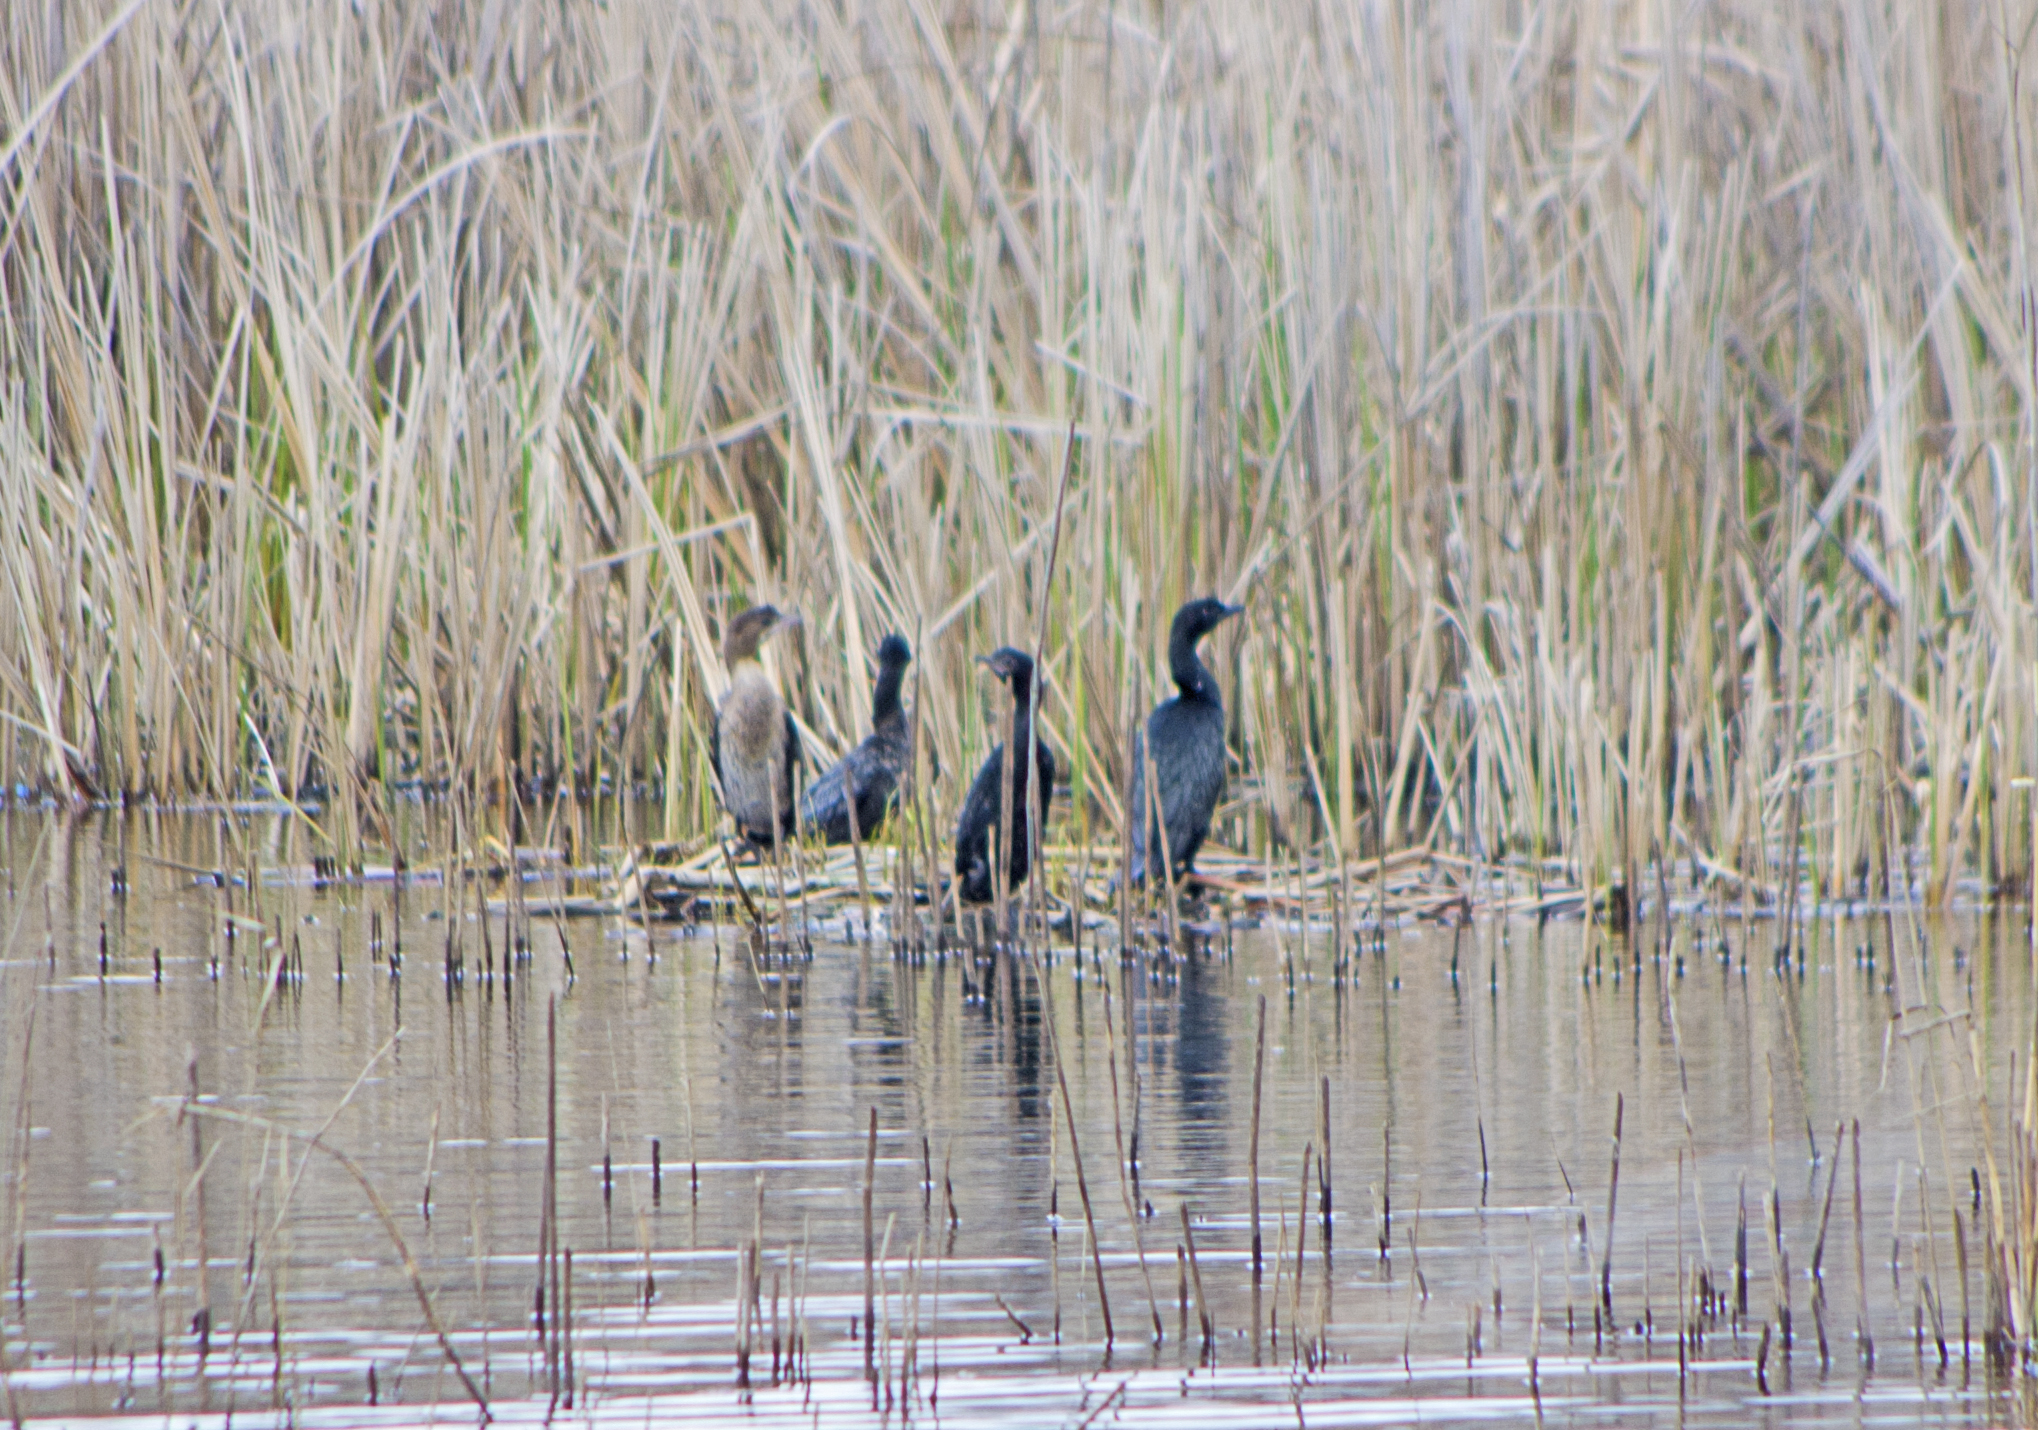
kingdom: Animalia
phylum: Chordata
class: Aves
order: Suliformes
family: Phalacrocoracidae
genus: Microcarbo
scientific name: Microcarbo pygmaeus
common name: Pygmy cormorant
